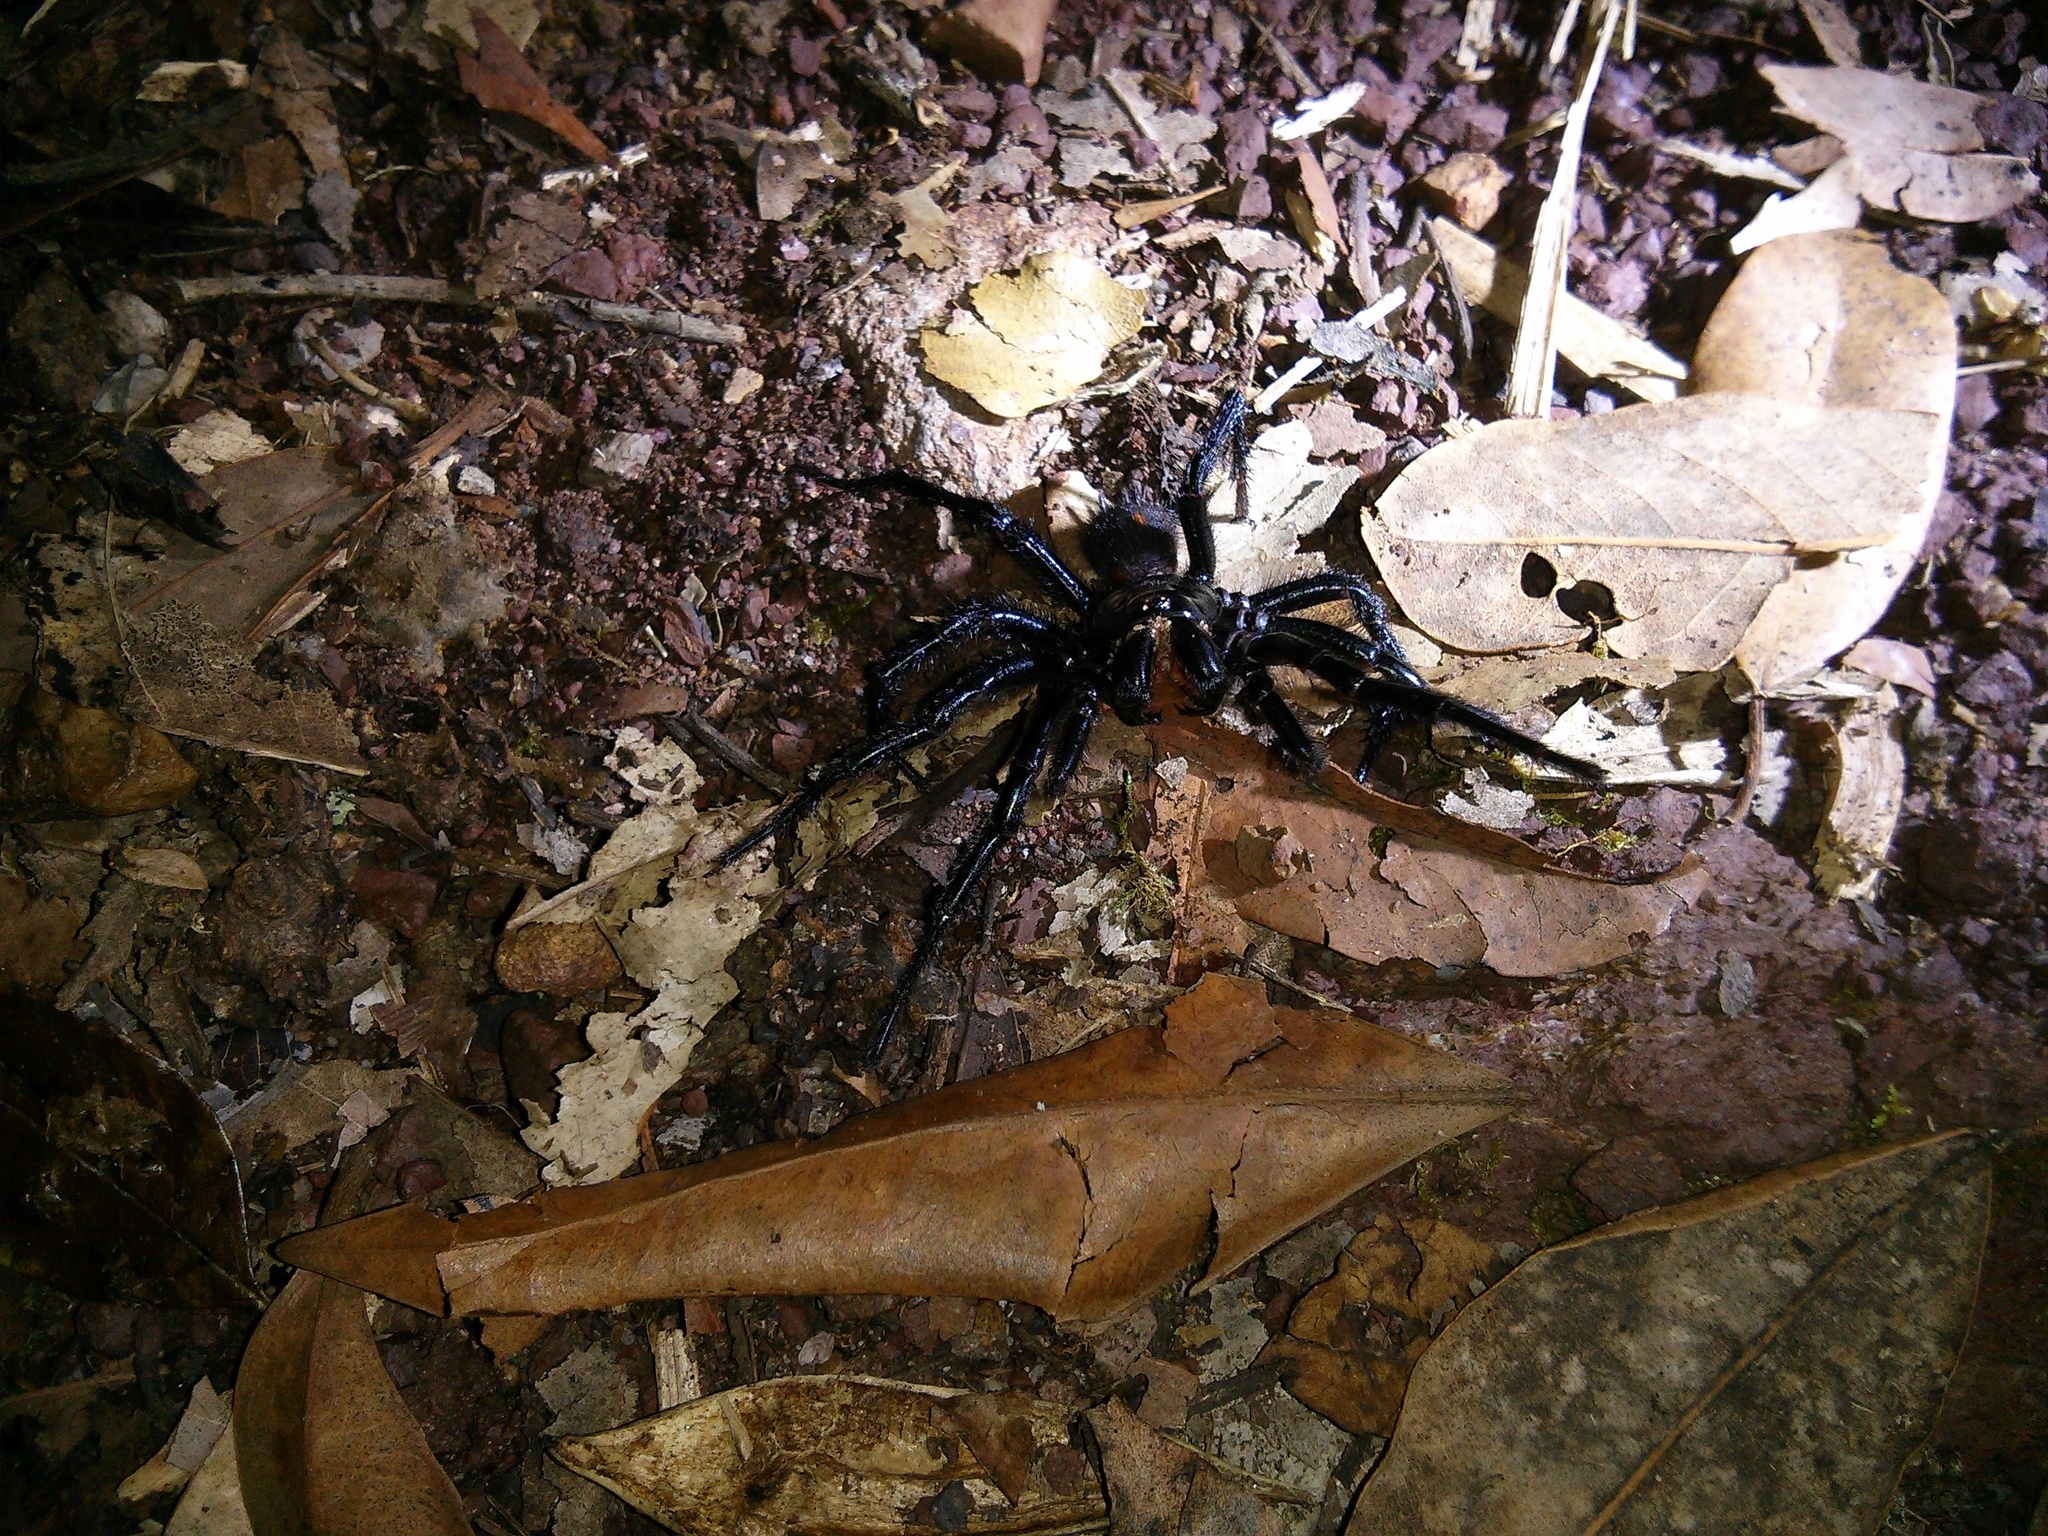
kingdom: Animalia
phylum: Arthropoda
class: Arachnida
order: Araneae
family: Atracidae
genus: Atrax
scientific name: Atrax robustus
